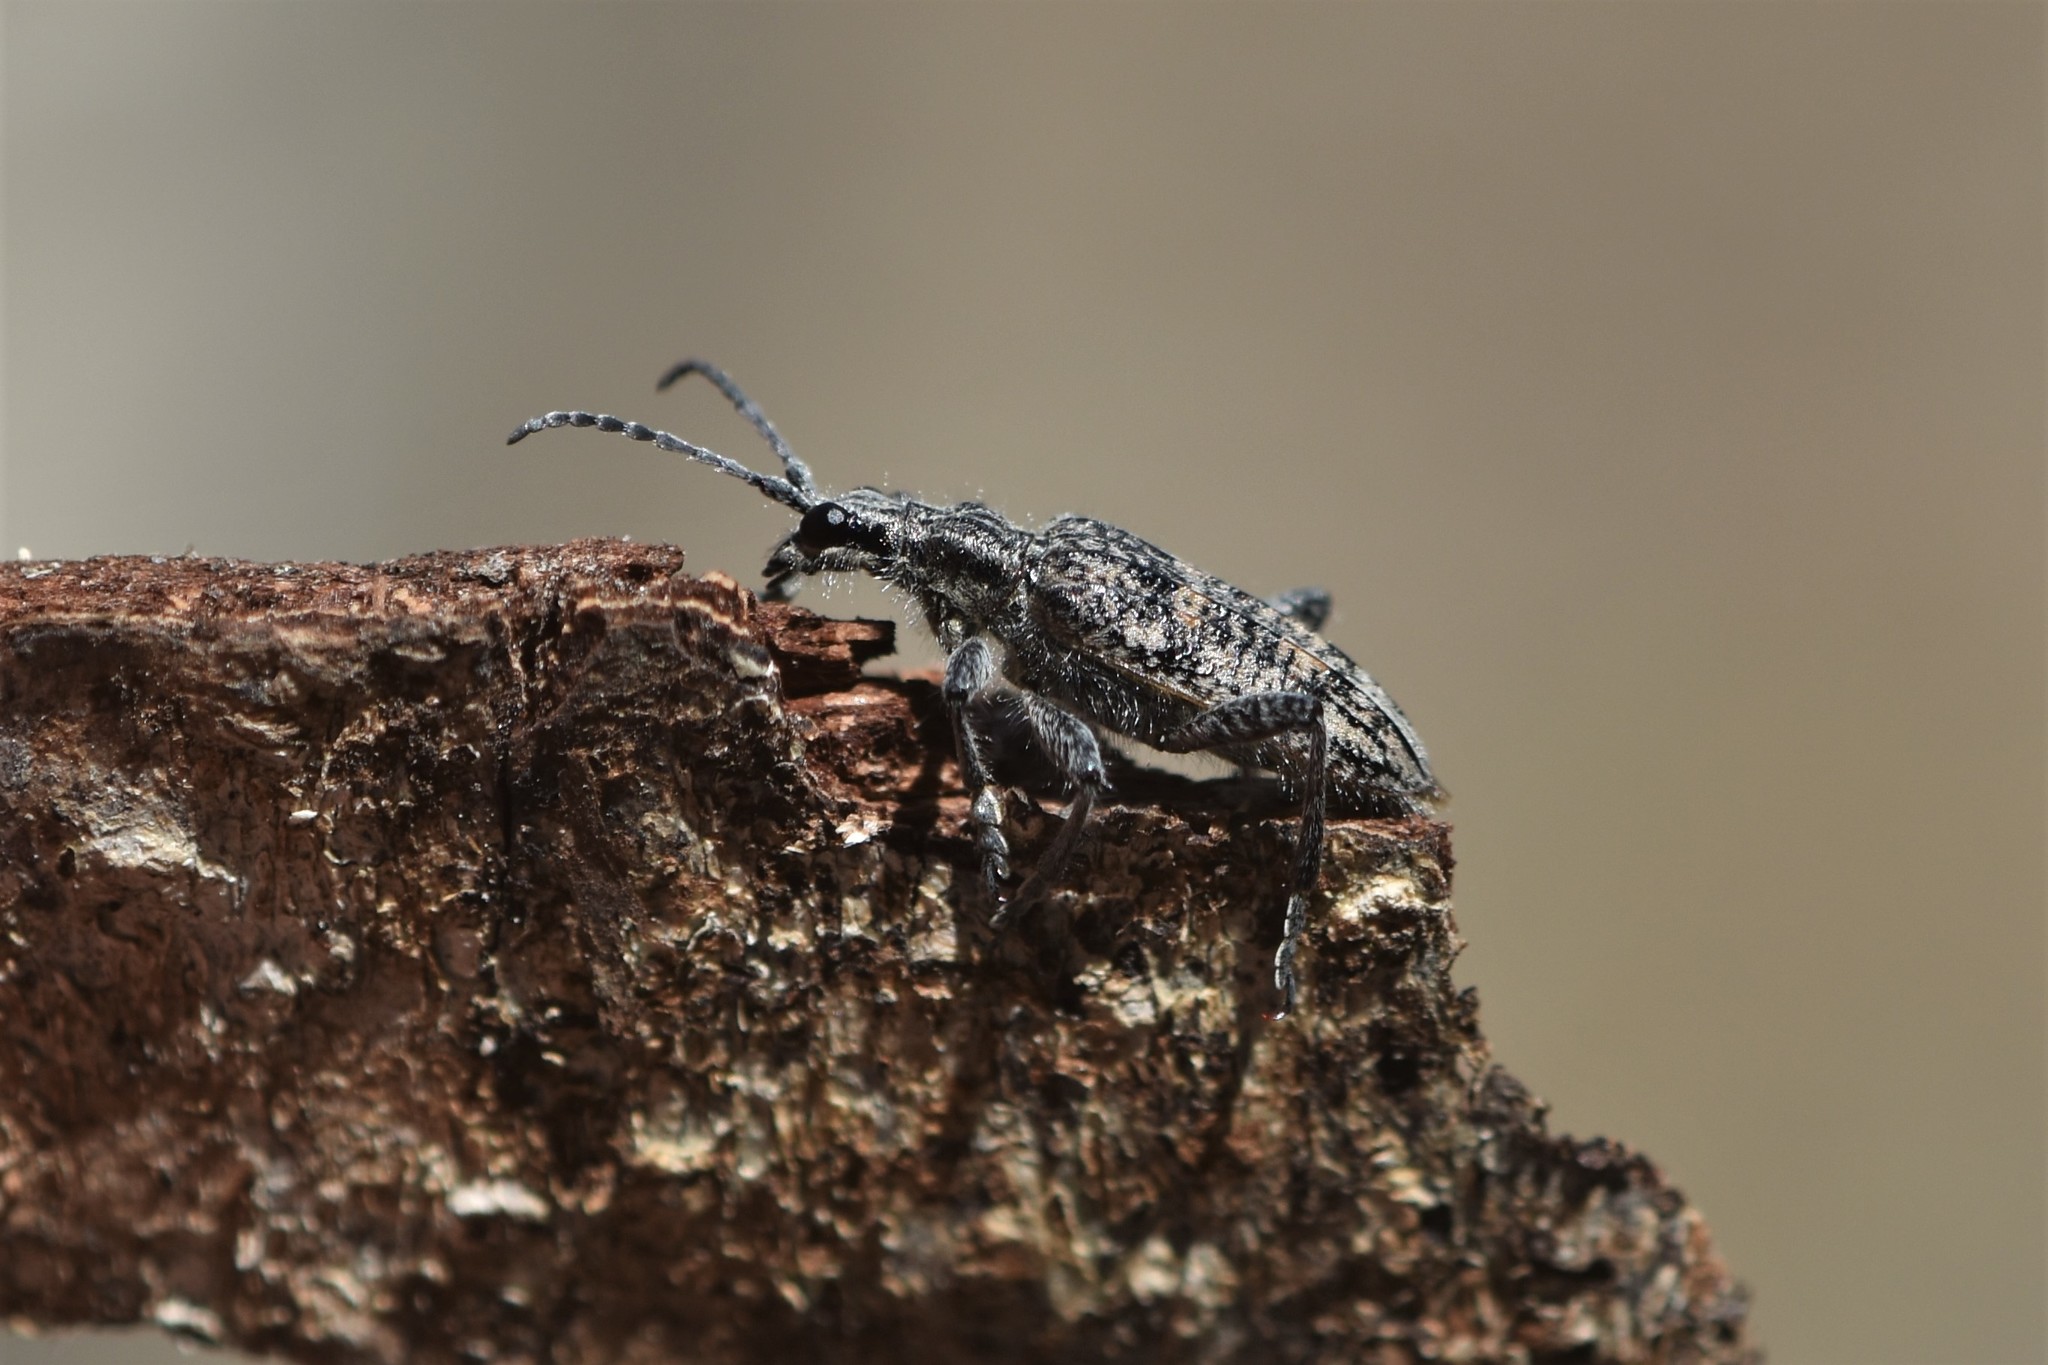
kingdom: Animalia
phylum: Arthropoda
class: Insecta
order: Coleoptera
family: Cerambycidae
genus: Rhagium
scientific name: Rhagium inquisitor
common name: Ribbed pine borer
